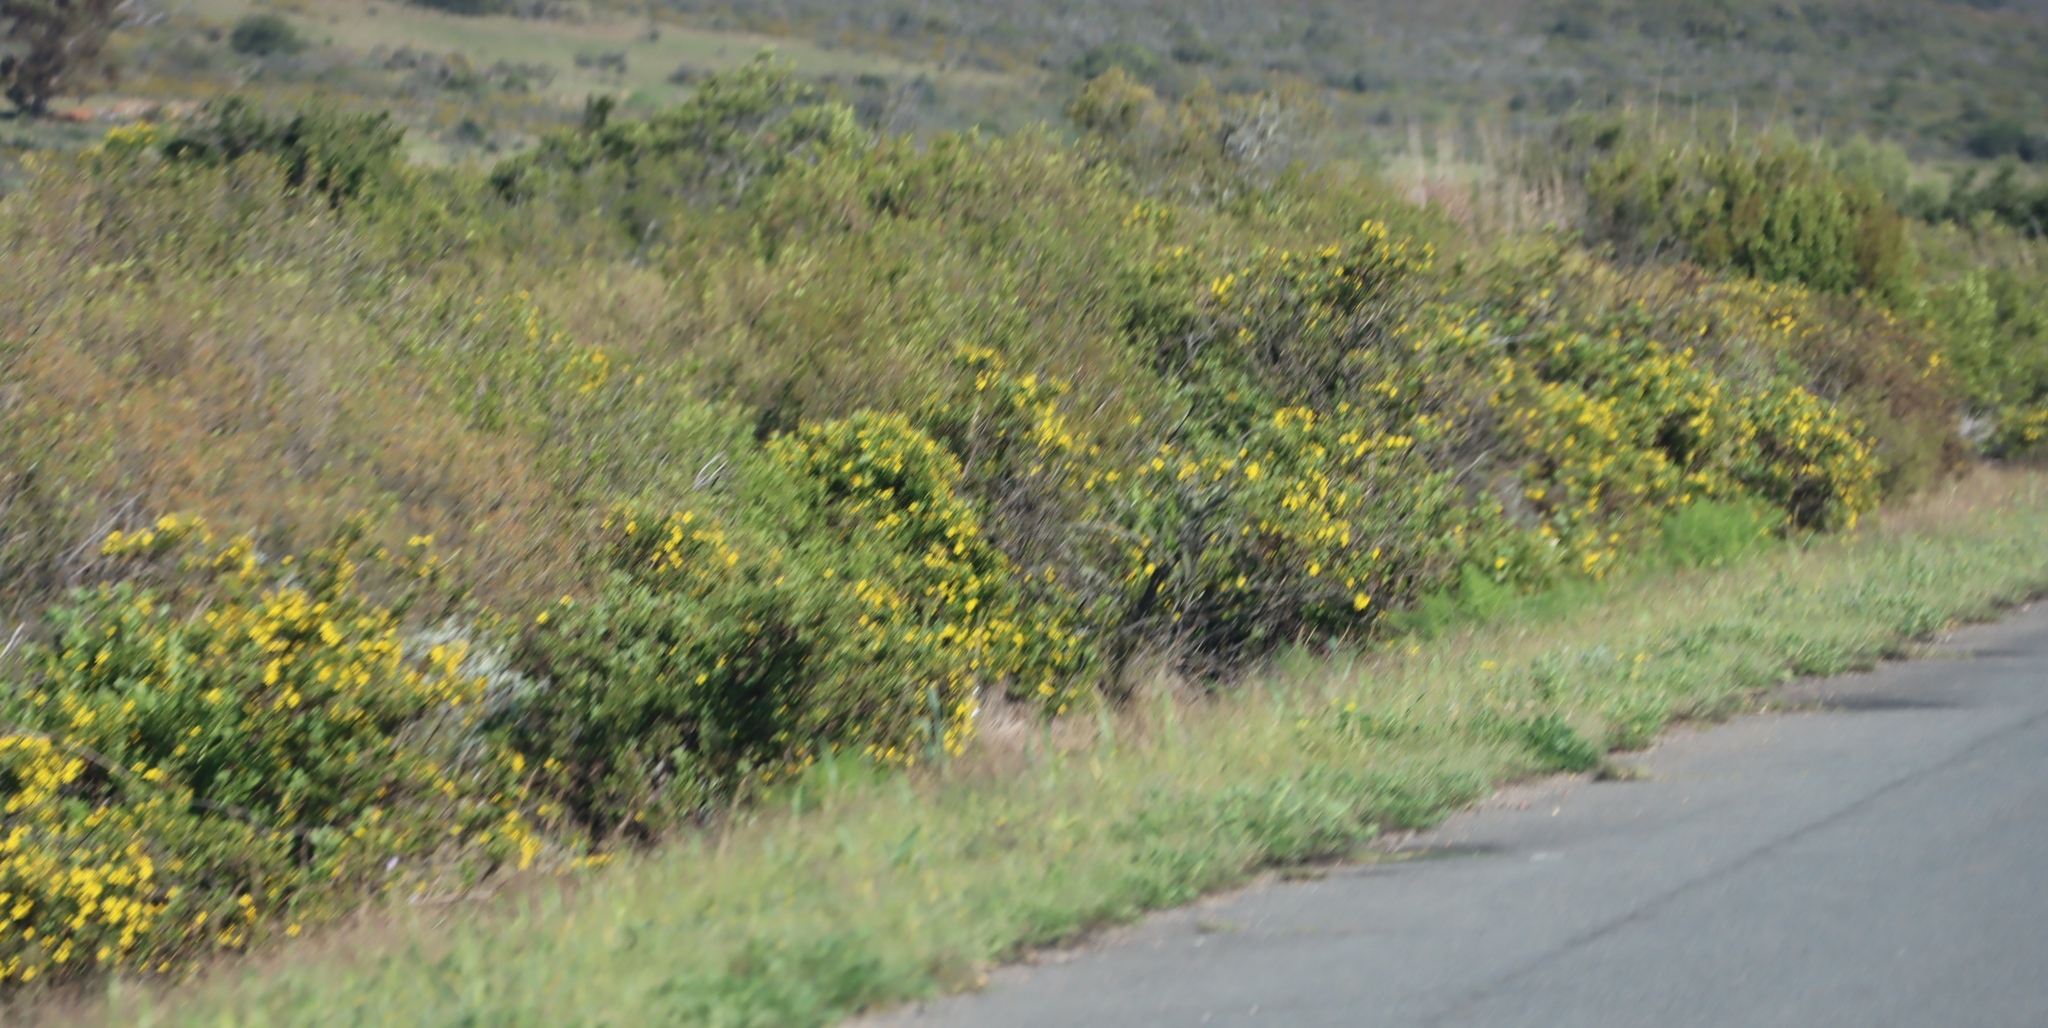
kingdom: Plantae
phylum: Tracheophyta
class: Magnoliopsida
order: Asterales
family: Asteraceae
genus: Osteospermum
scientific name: Osteospermum moniliferum
